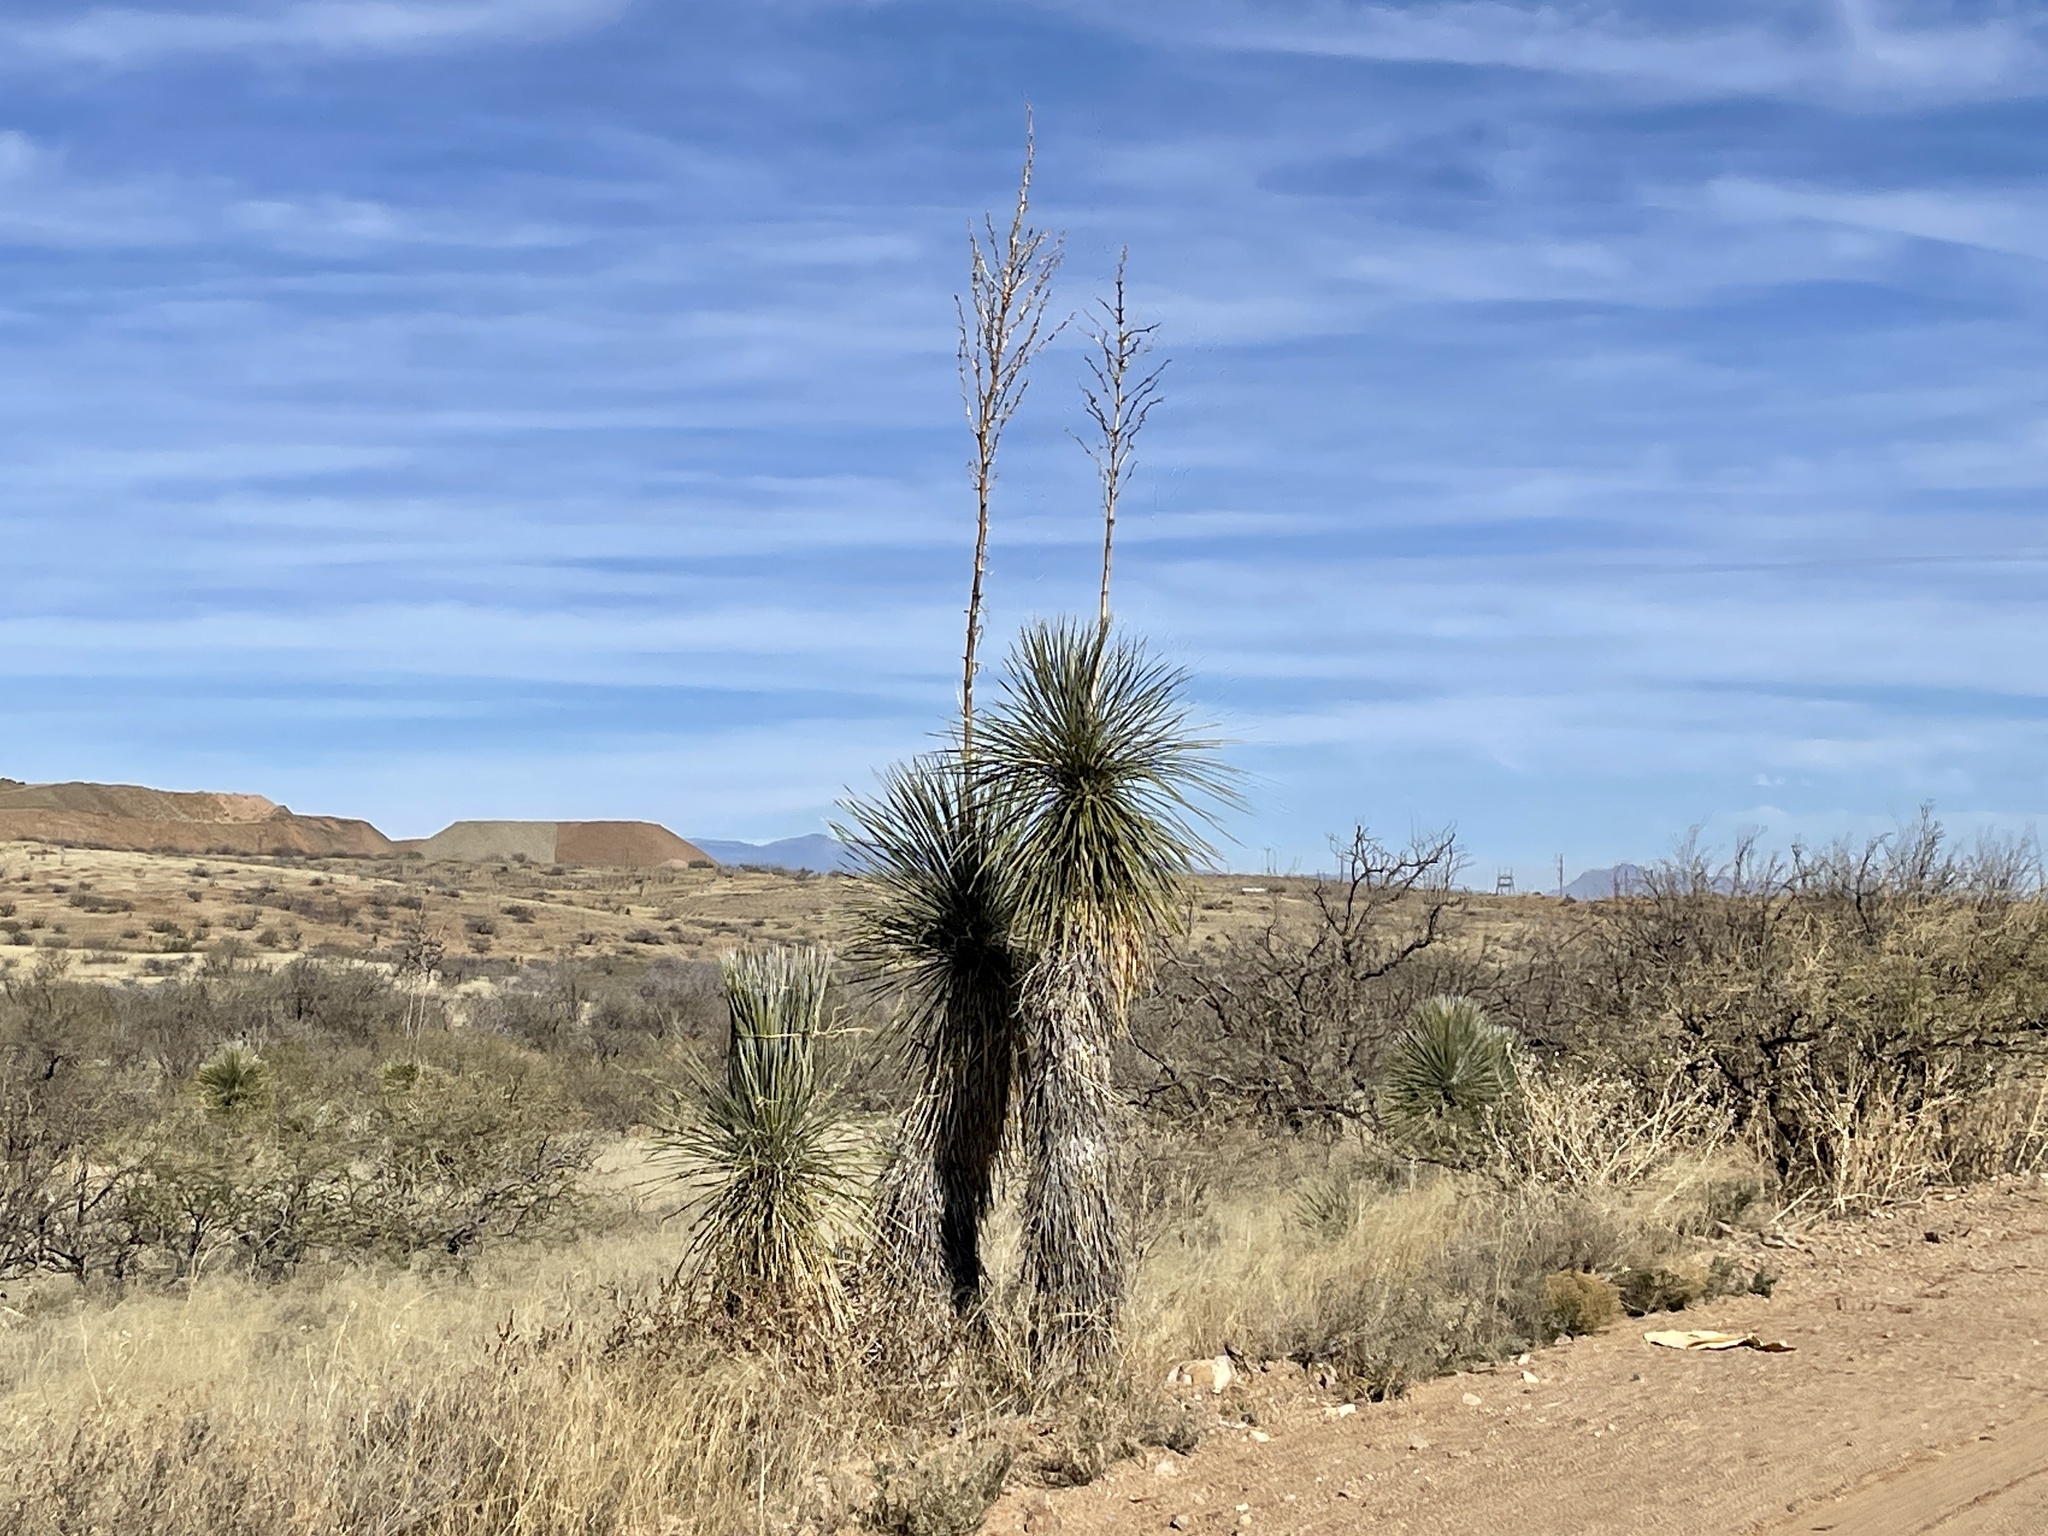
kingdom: Plantae
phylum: Tracheophyta
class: Liliopsida
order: Asparagales
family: Asparagaceae
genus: Yucca
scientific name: Yucca elata
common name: Palmella
